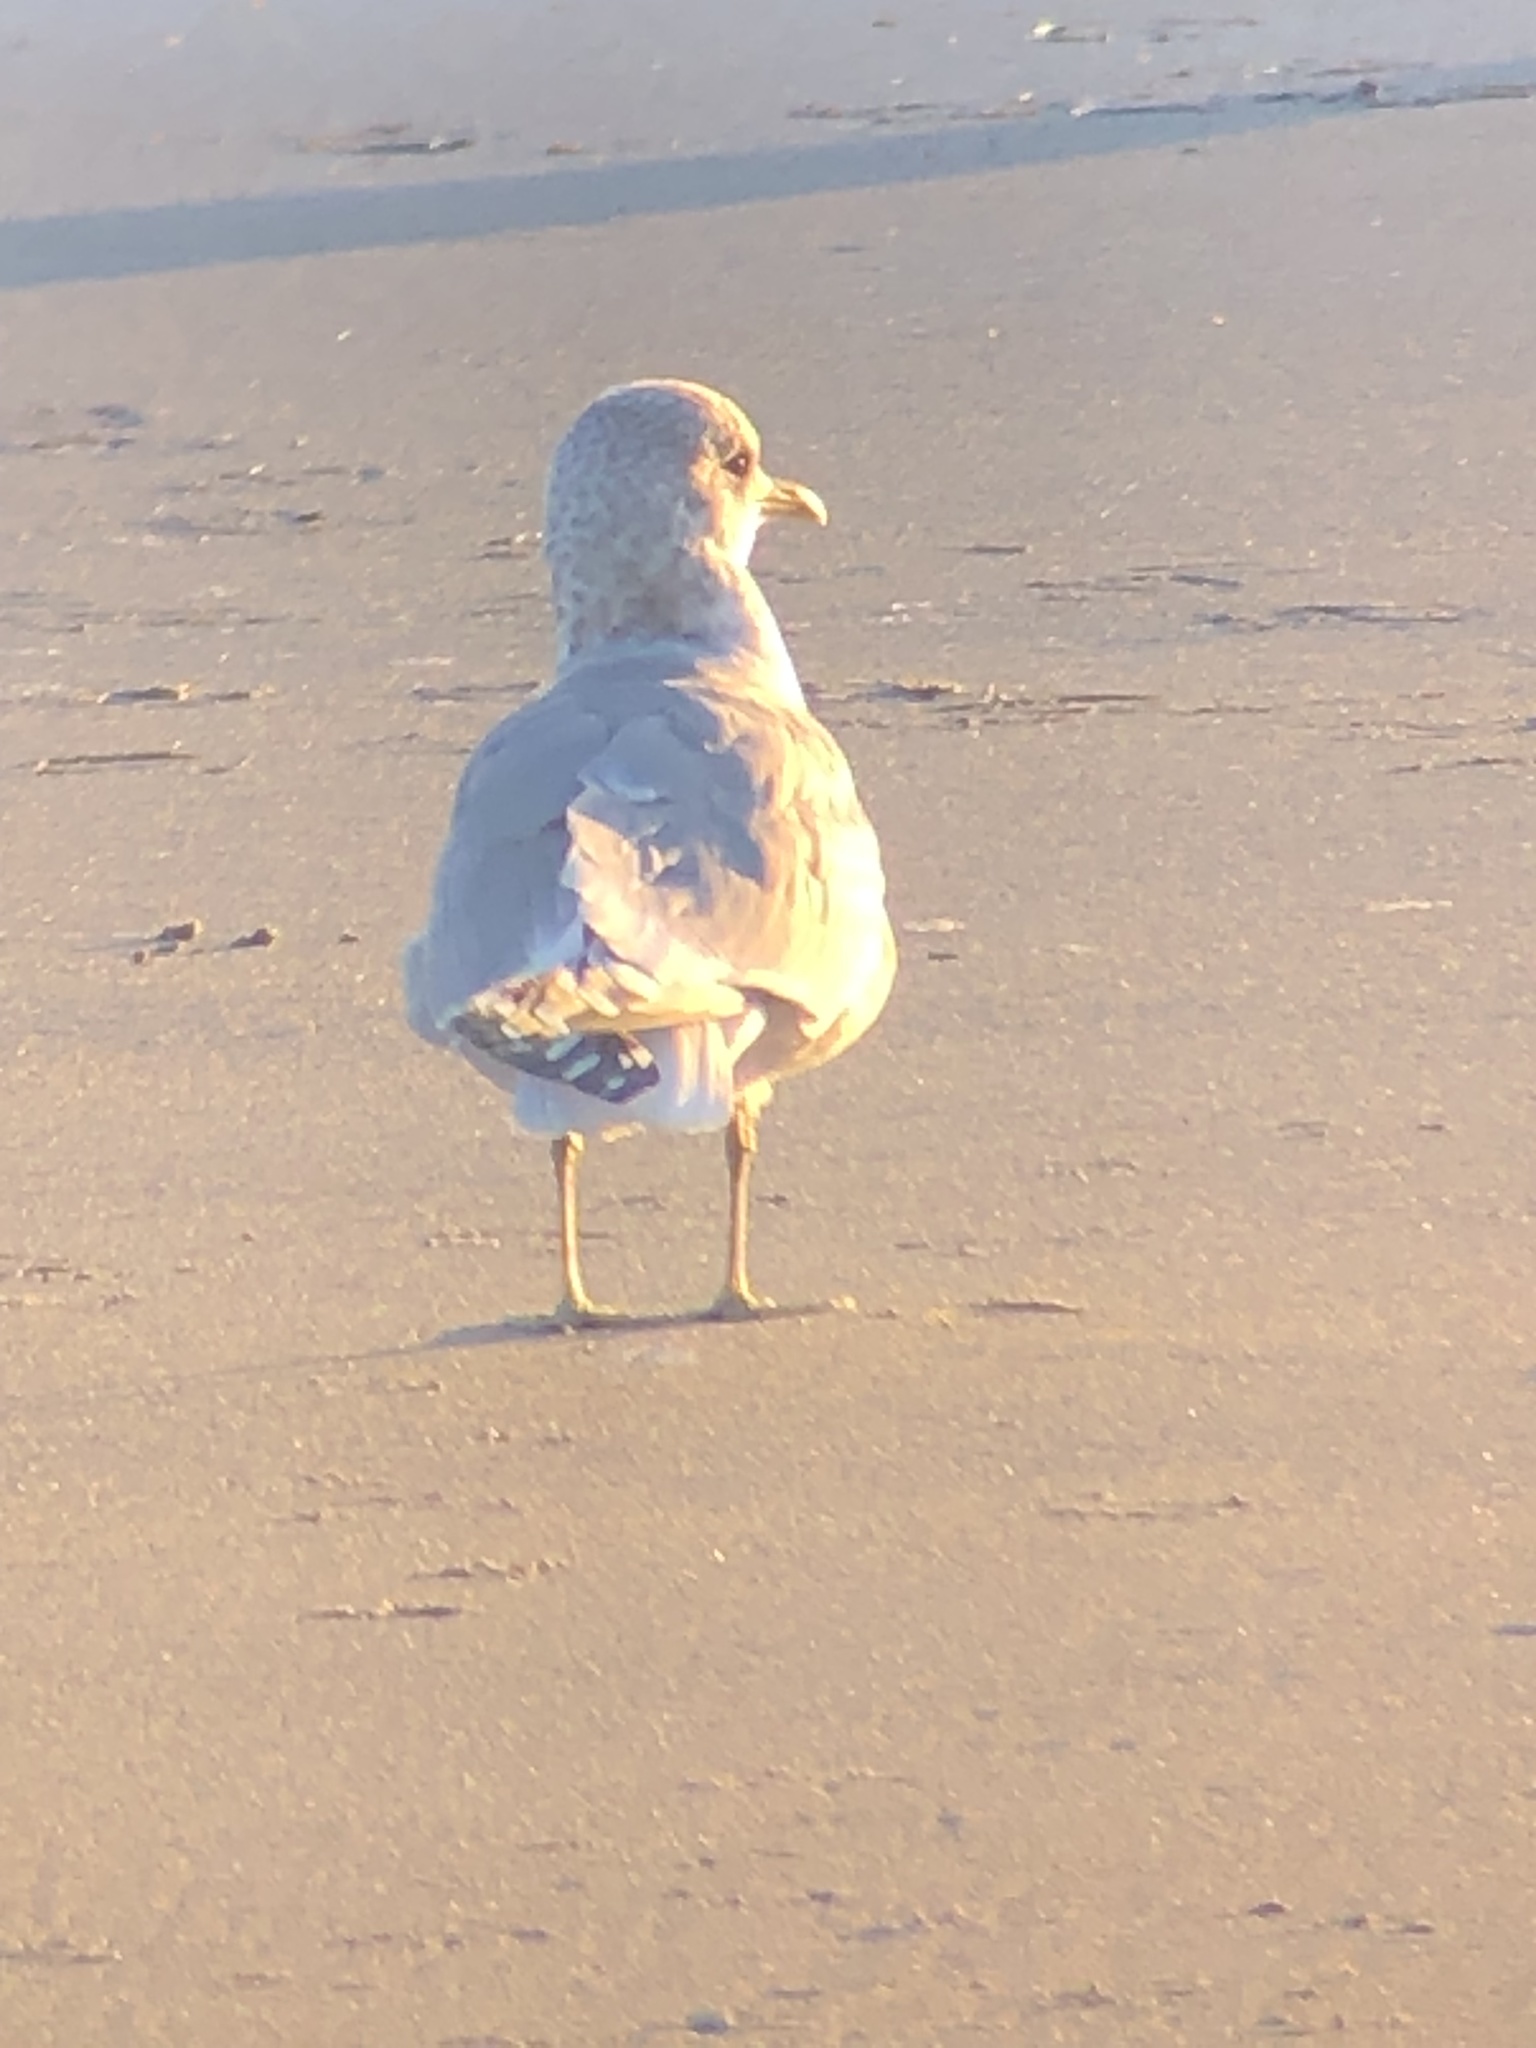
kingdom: Animalia
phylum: Chordata
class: Aves
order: Charadriiformes
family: Laridae
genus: Larus
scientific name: Larus brachyrhynchus
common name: Short-billed gull
